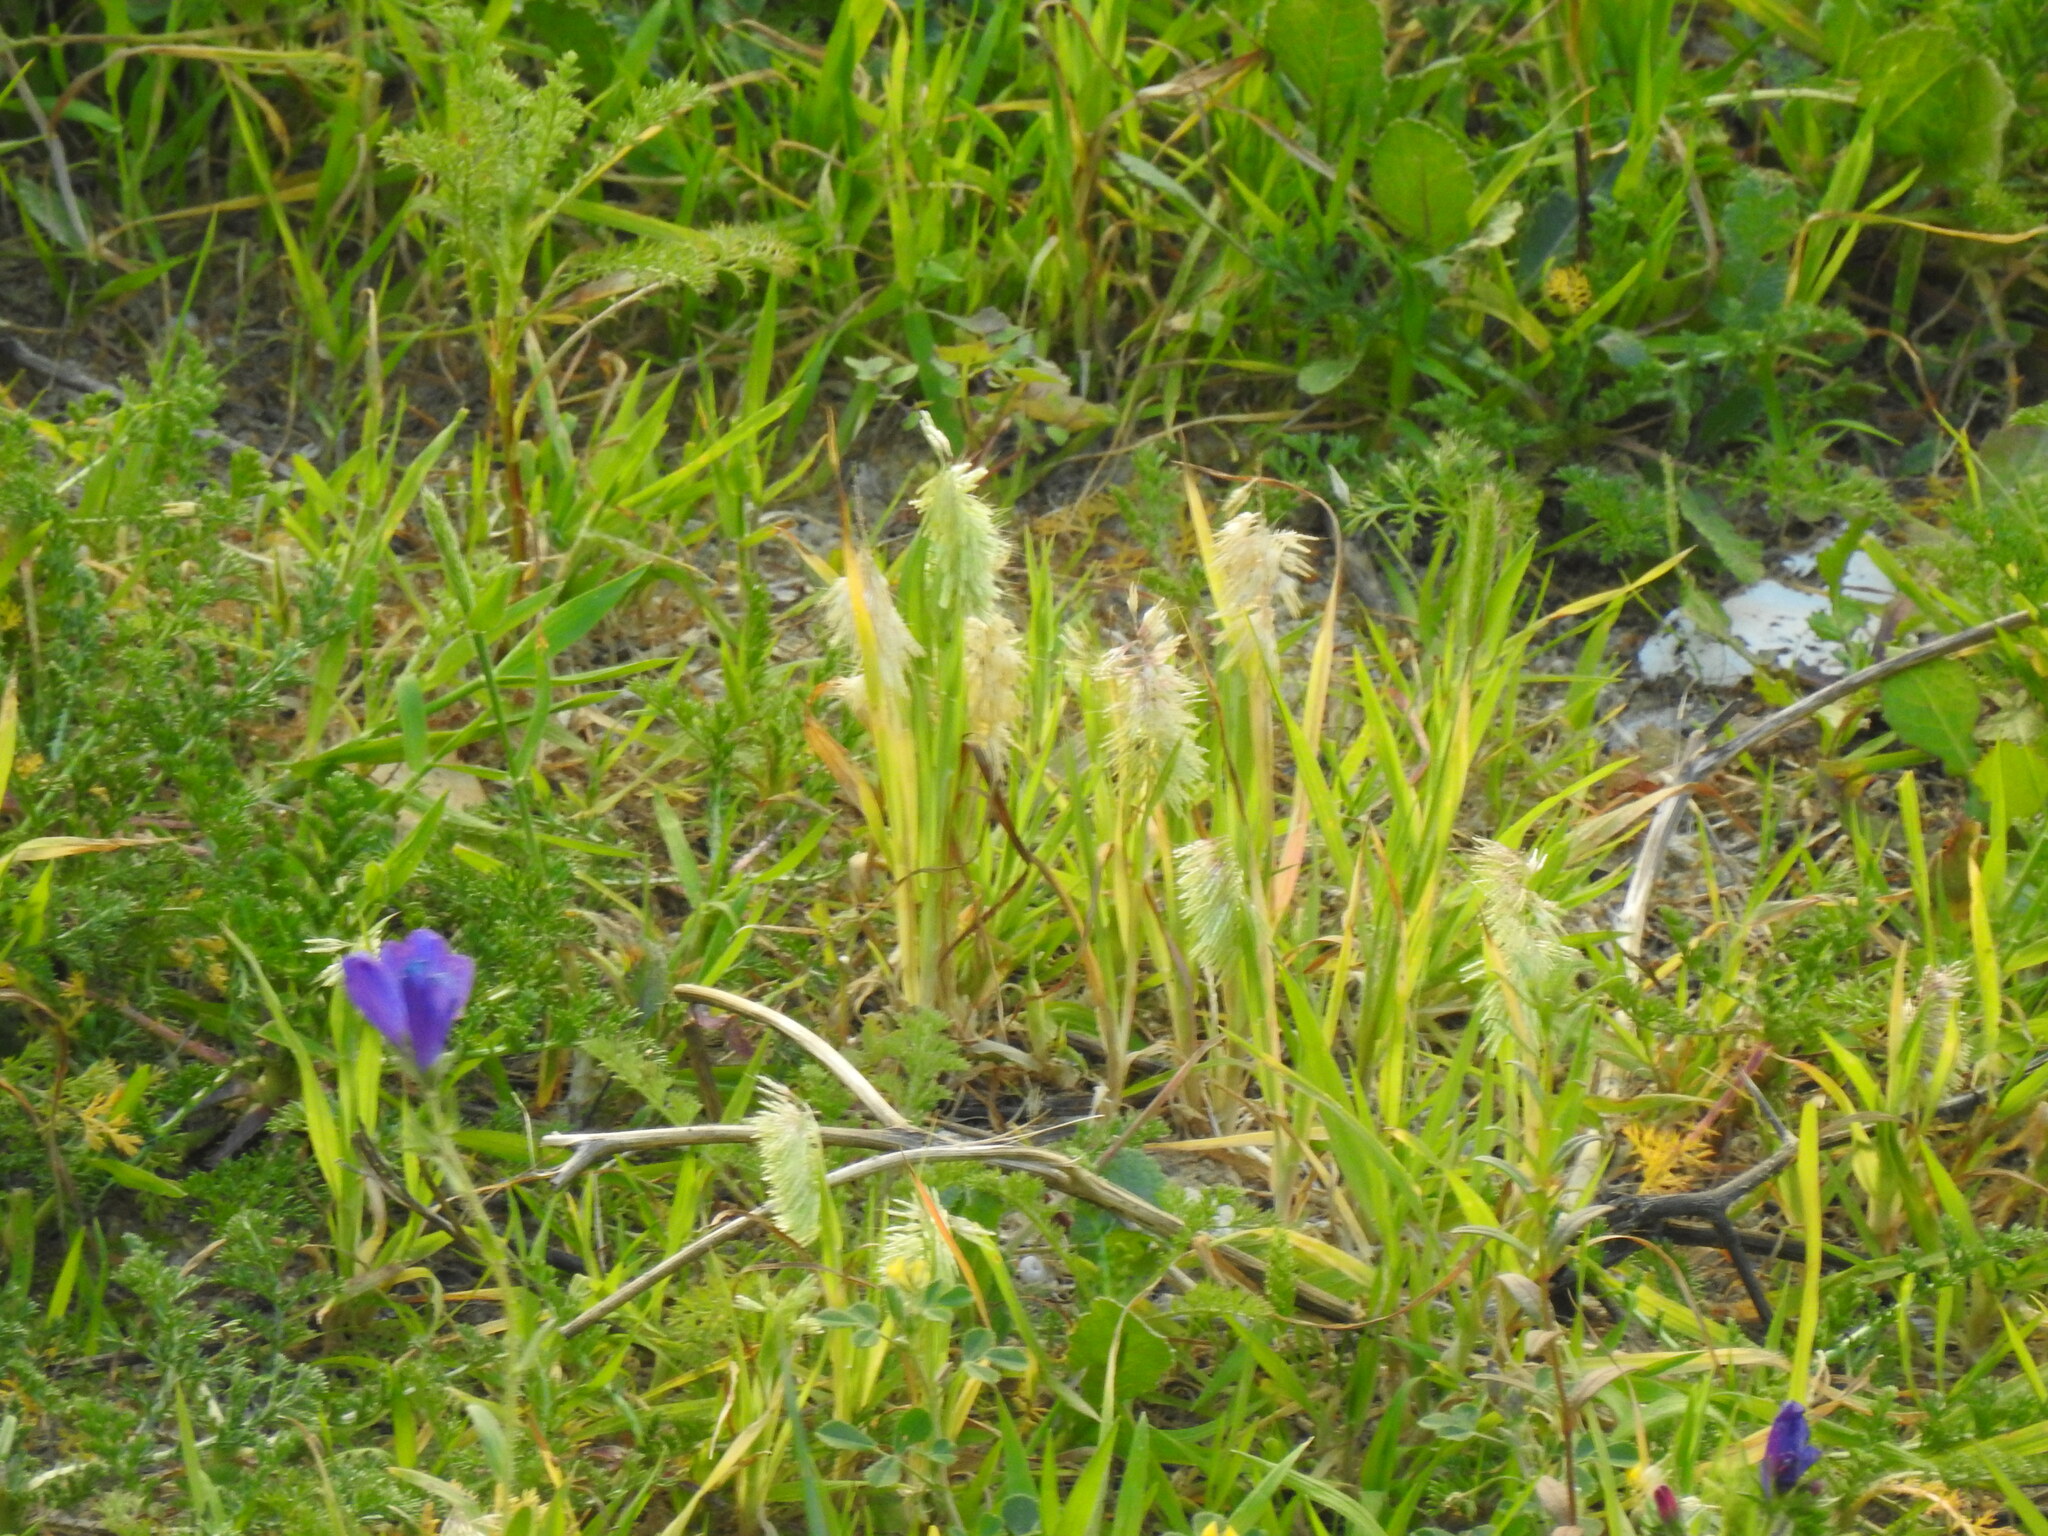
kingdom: Plantae
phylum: Tracheophyta
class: Liliopsida
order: Poales
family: Poaceae
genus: Lamarckia
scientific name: Lamarckia aurea
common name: Golden dog's-tail
